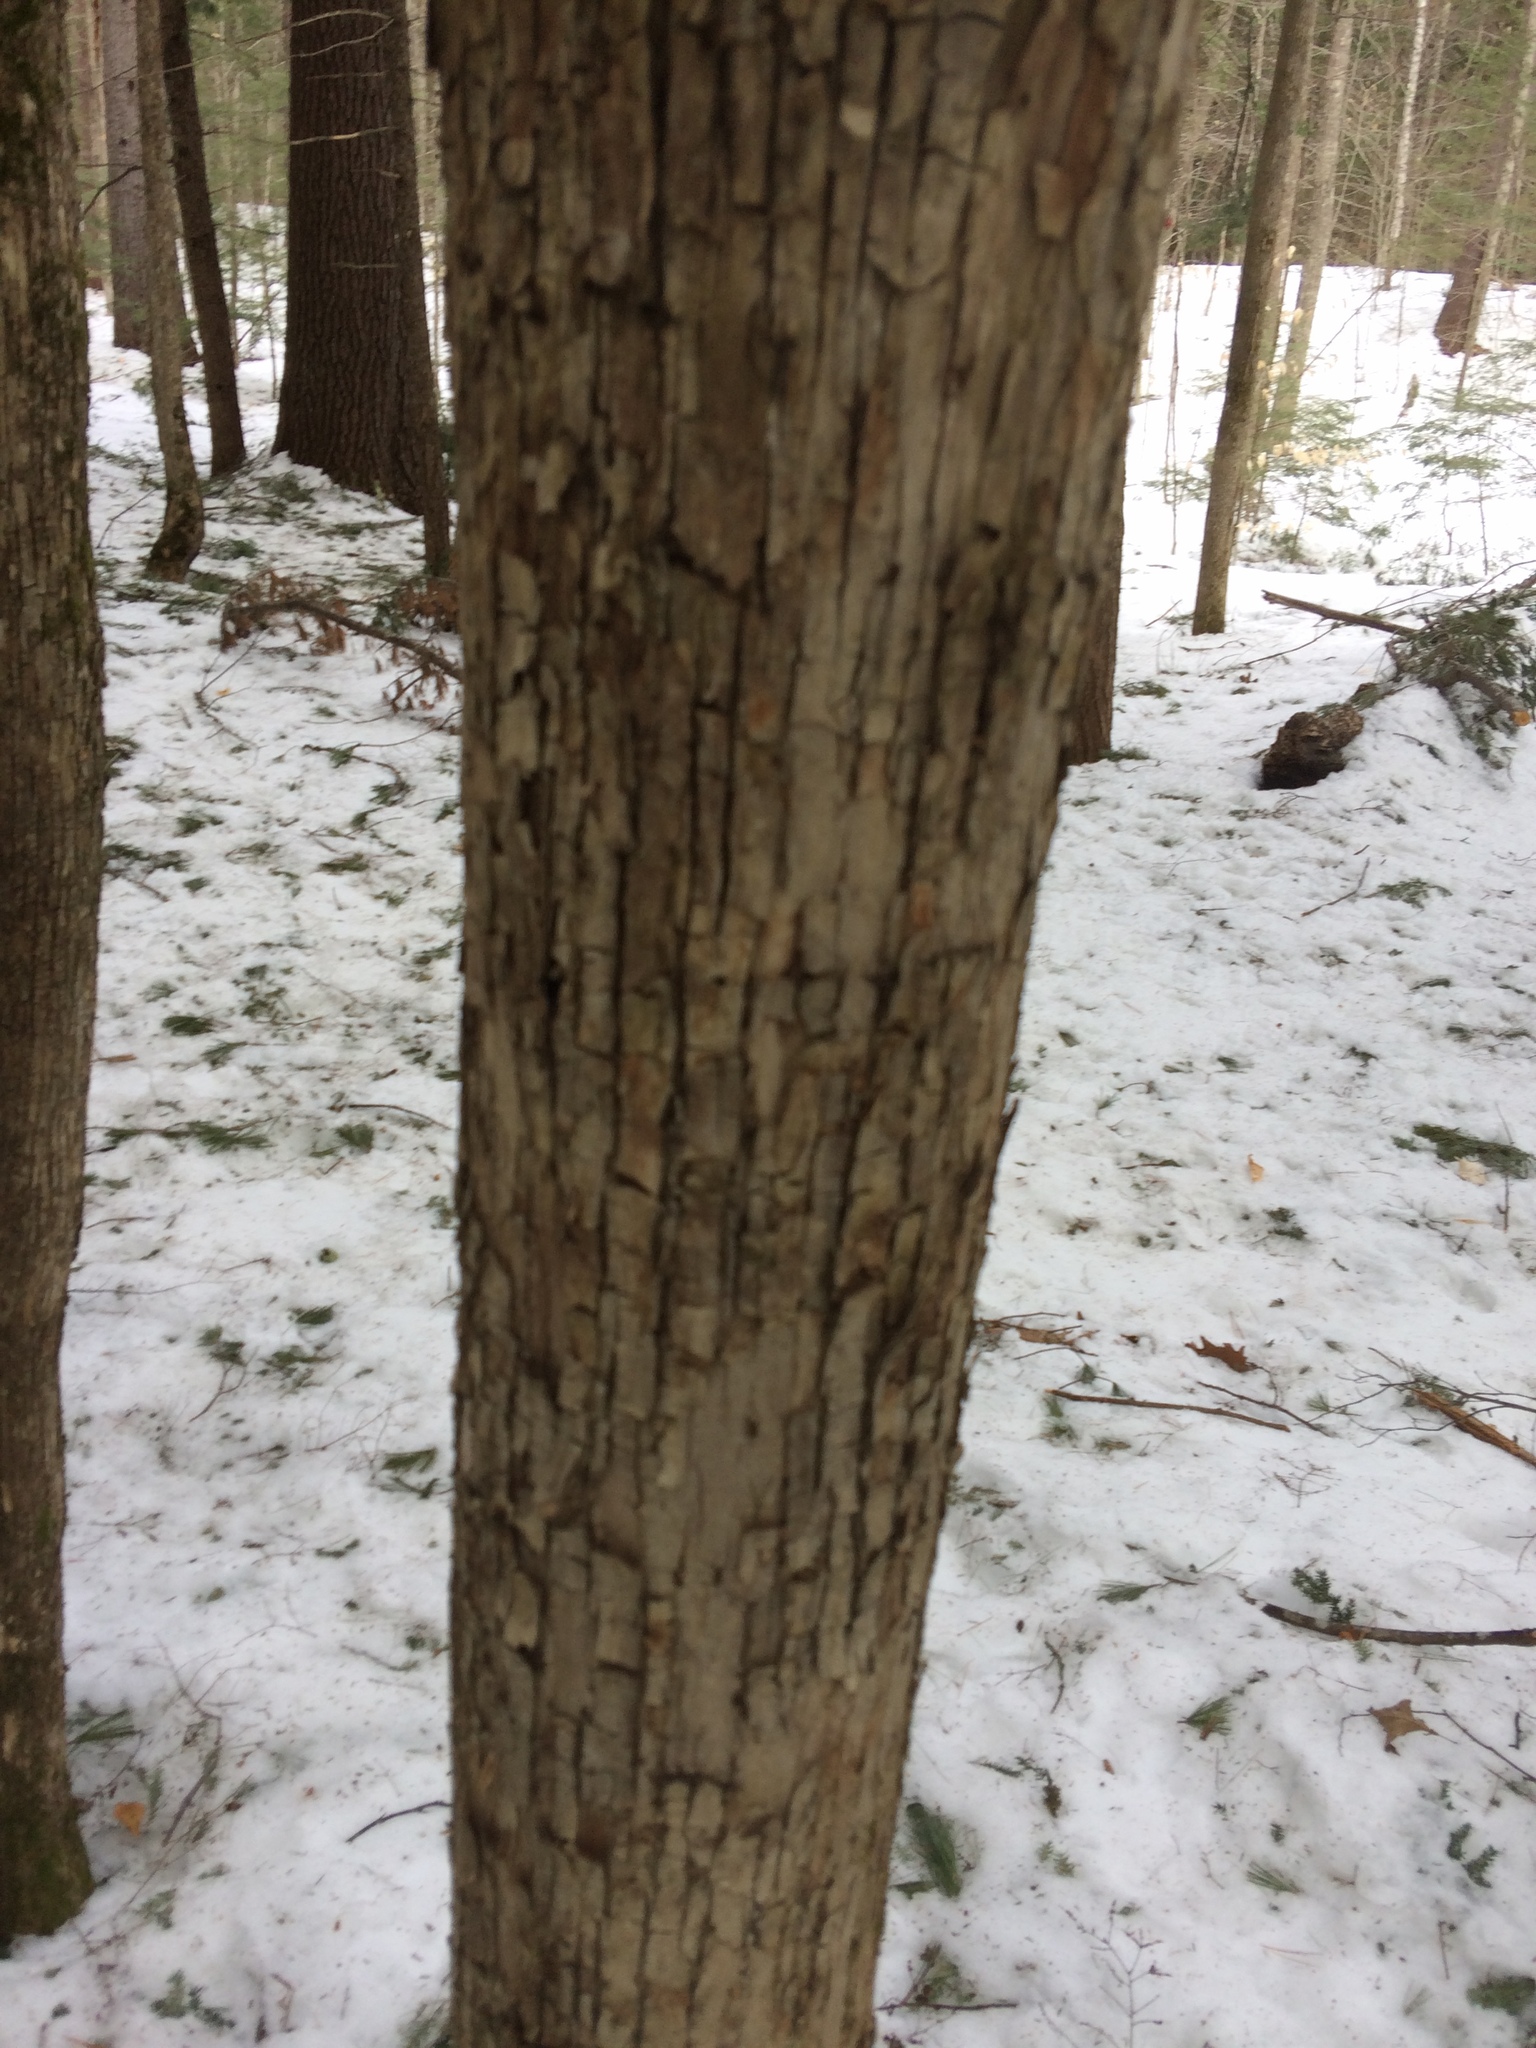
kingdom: Plantae
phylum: Tracheophyta
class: Magnoliopsida
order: Fagales
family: Betulaceae
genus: Ostrya
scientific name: Ostrya virginiana
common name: Ironwood
